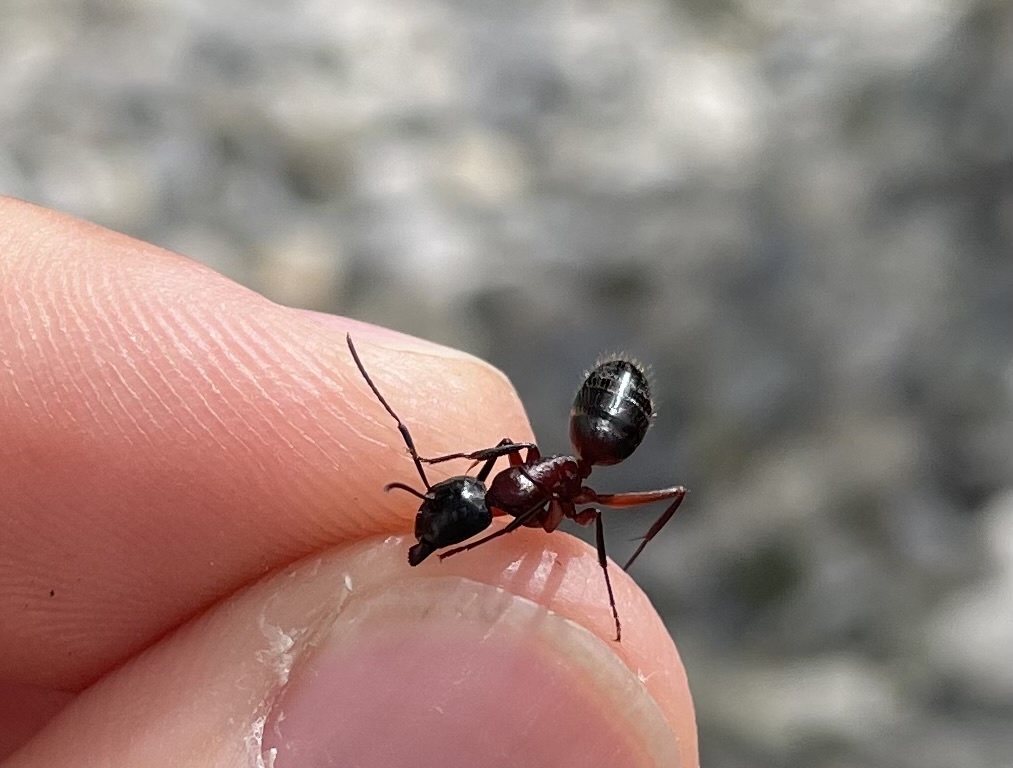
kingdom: Animalia
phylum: Arthropoda
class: Insecta
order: Hymenoptera
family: Formicidae
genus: Camponotus
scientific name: Camponotus ligniperdus
